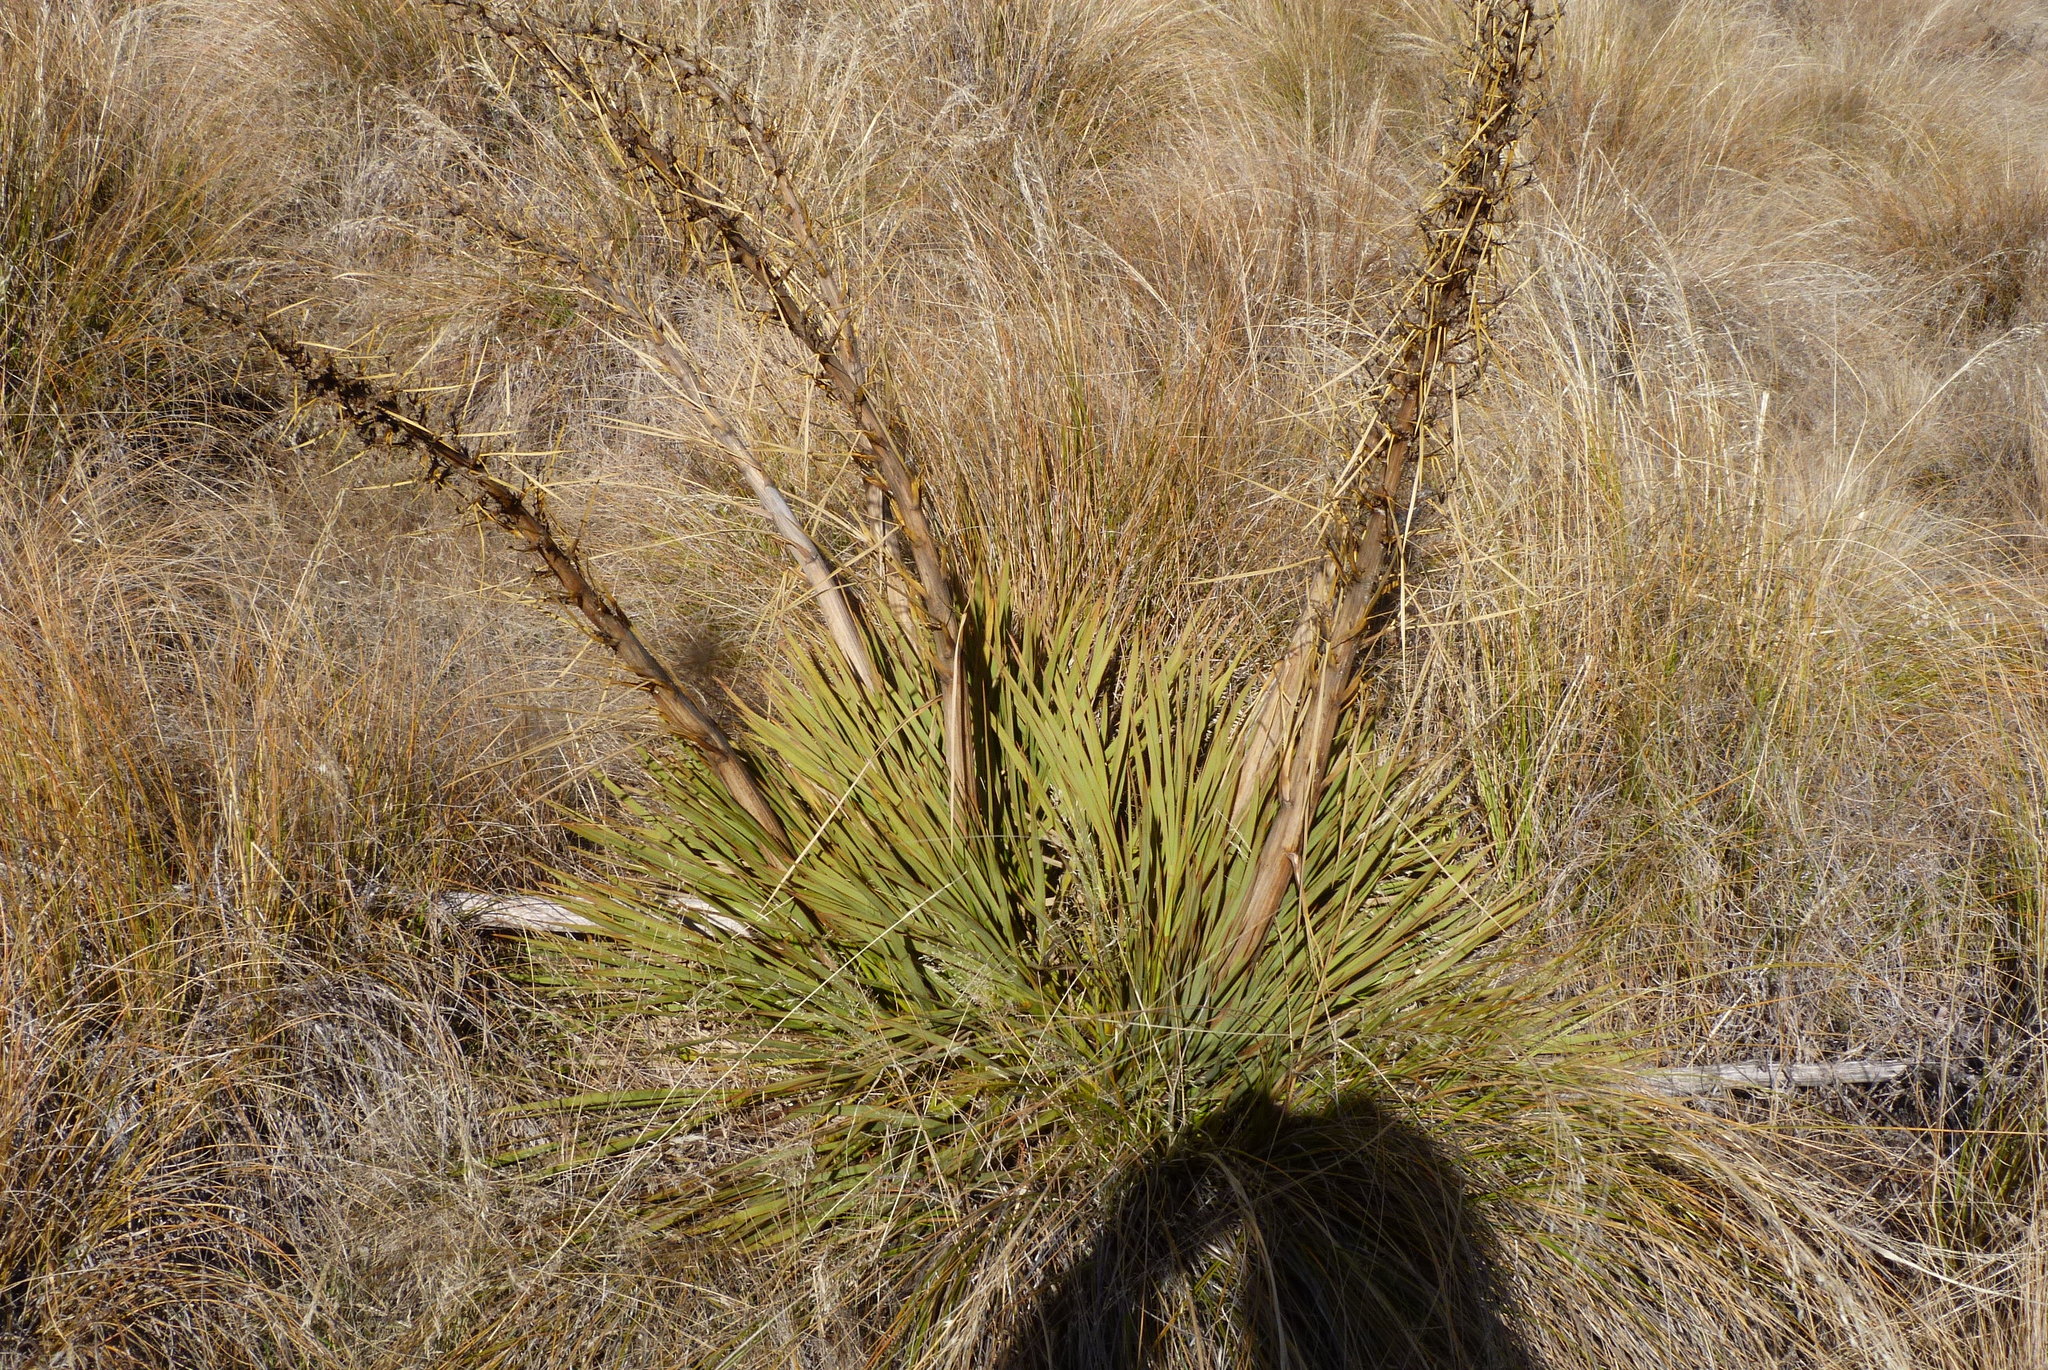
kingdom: Plantae
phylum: Tracheophyta
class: Magnoliopsida
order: Apiales
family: Apiaceae
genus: Aciphylla
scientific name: Aciphylla aurea
